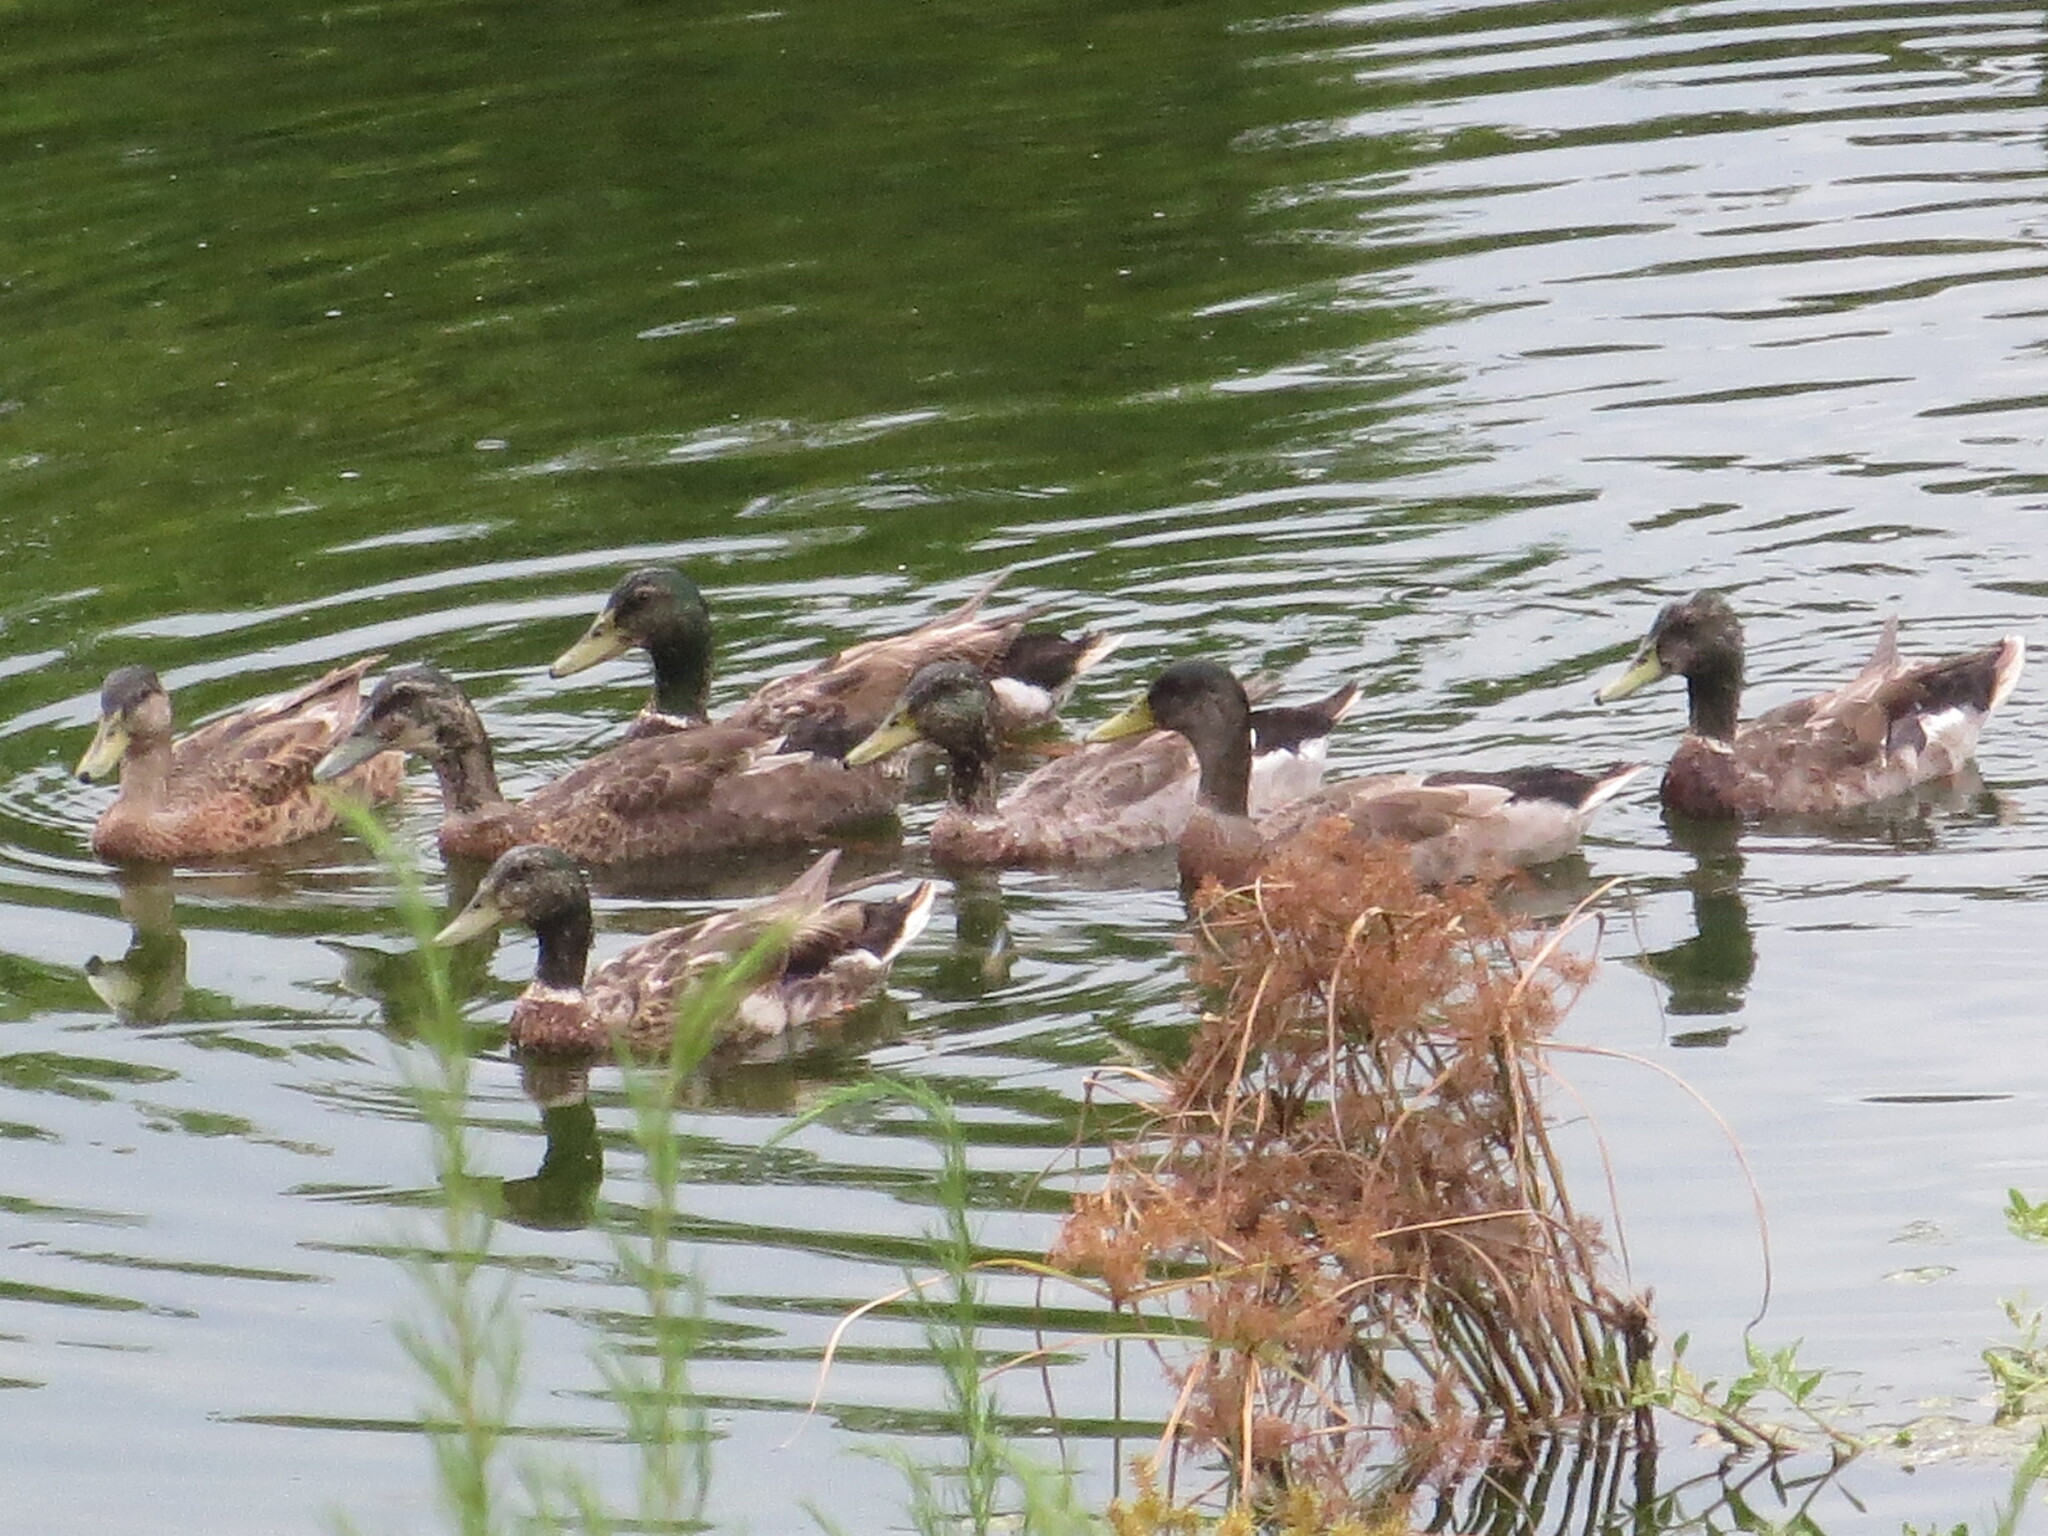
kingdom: Animalia
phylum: Chordata
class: Aves
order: Anseriformes
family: Anatidae
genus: Anas
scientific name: Anas platyrhynchos
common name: Mallard
